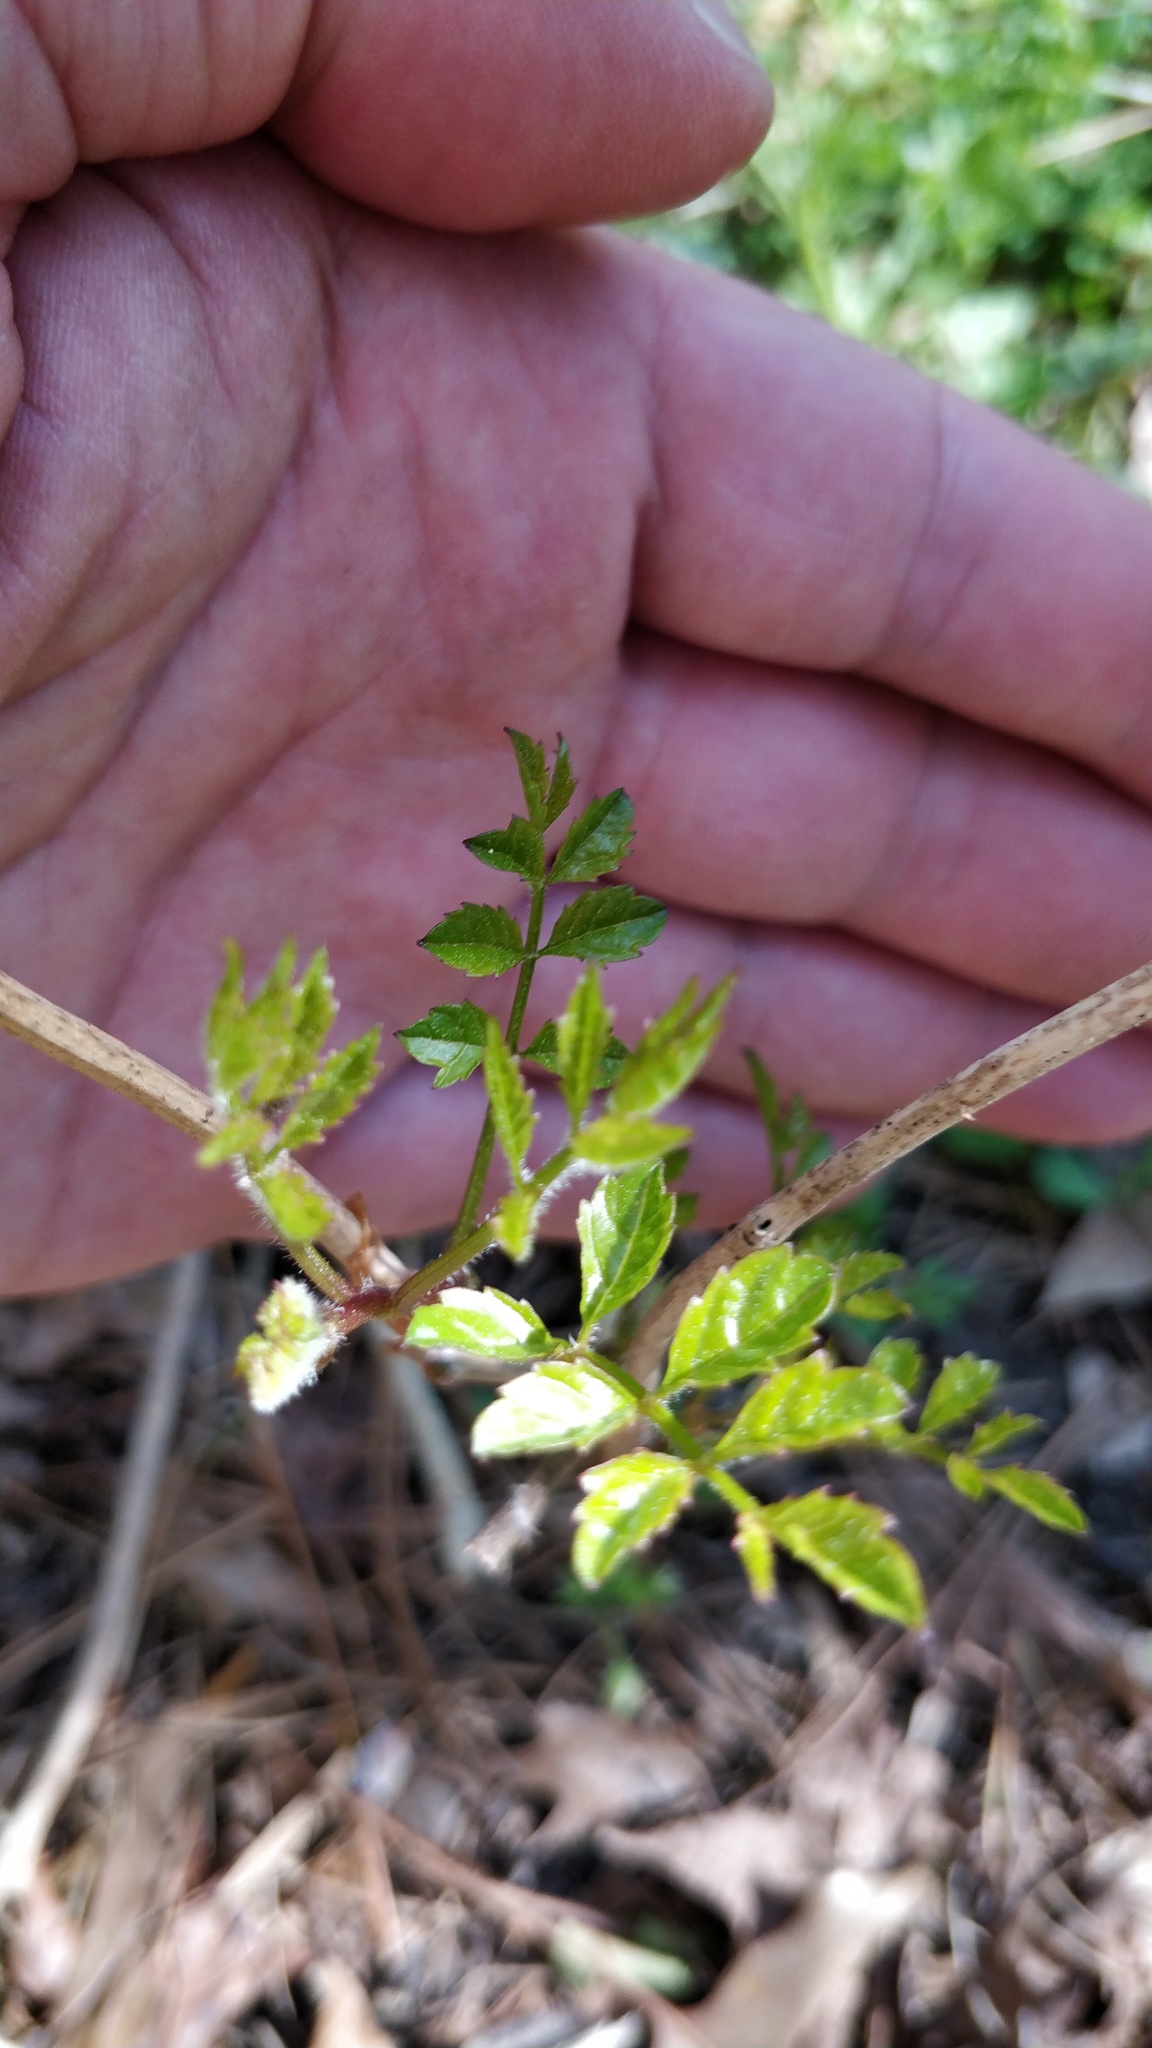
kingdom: Plantae
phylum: Tracheophyta
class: Magnoliopsida
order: Lamiales
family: Bignoniaceae
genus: Campsis
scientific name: Campsis radicans
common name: Trumpet-creeper
